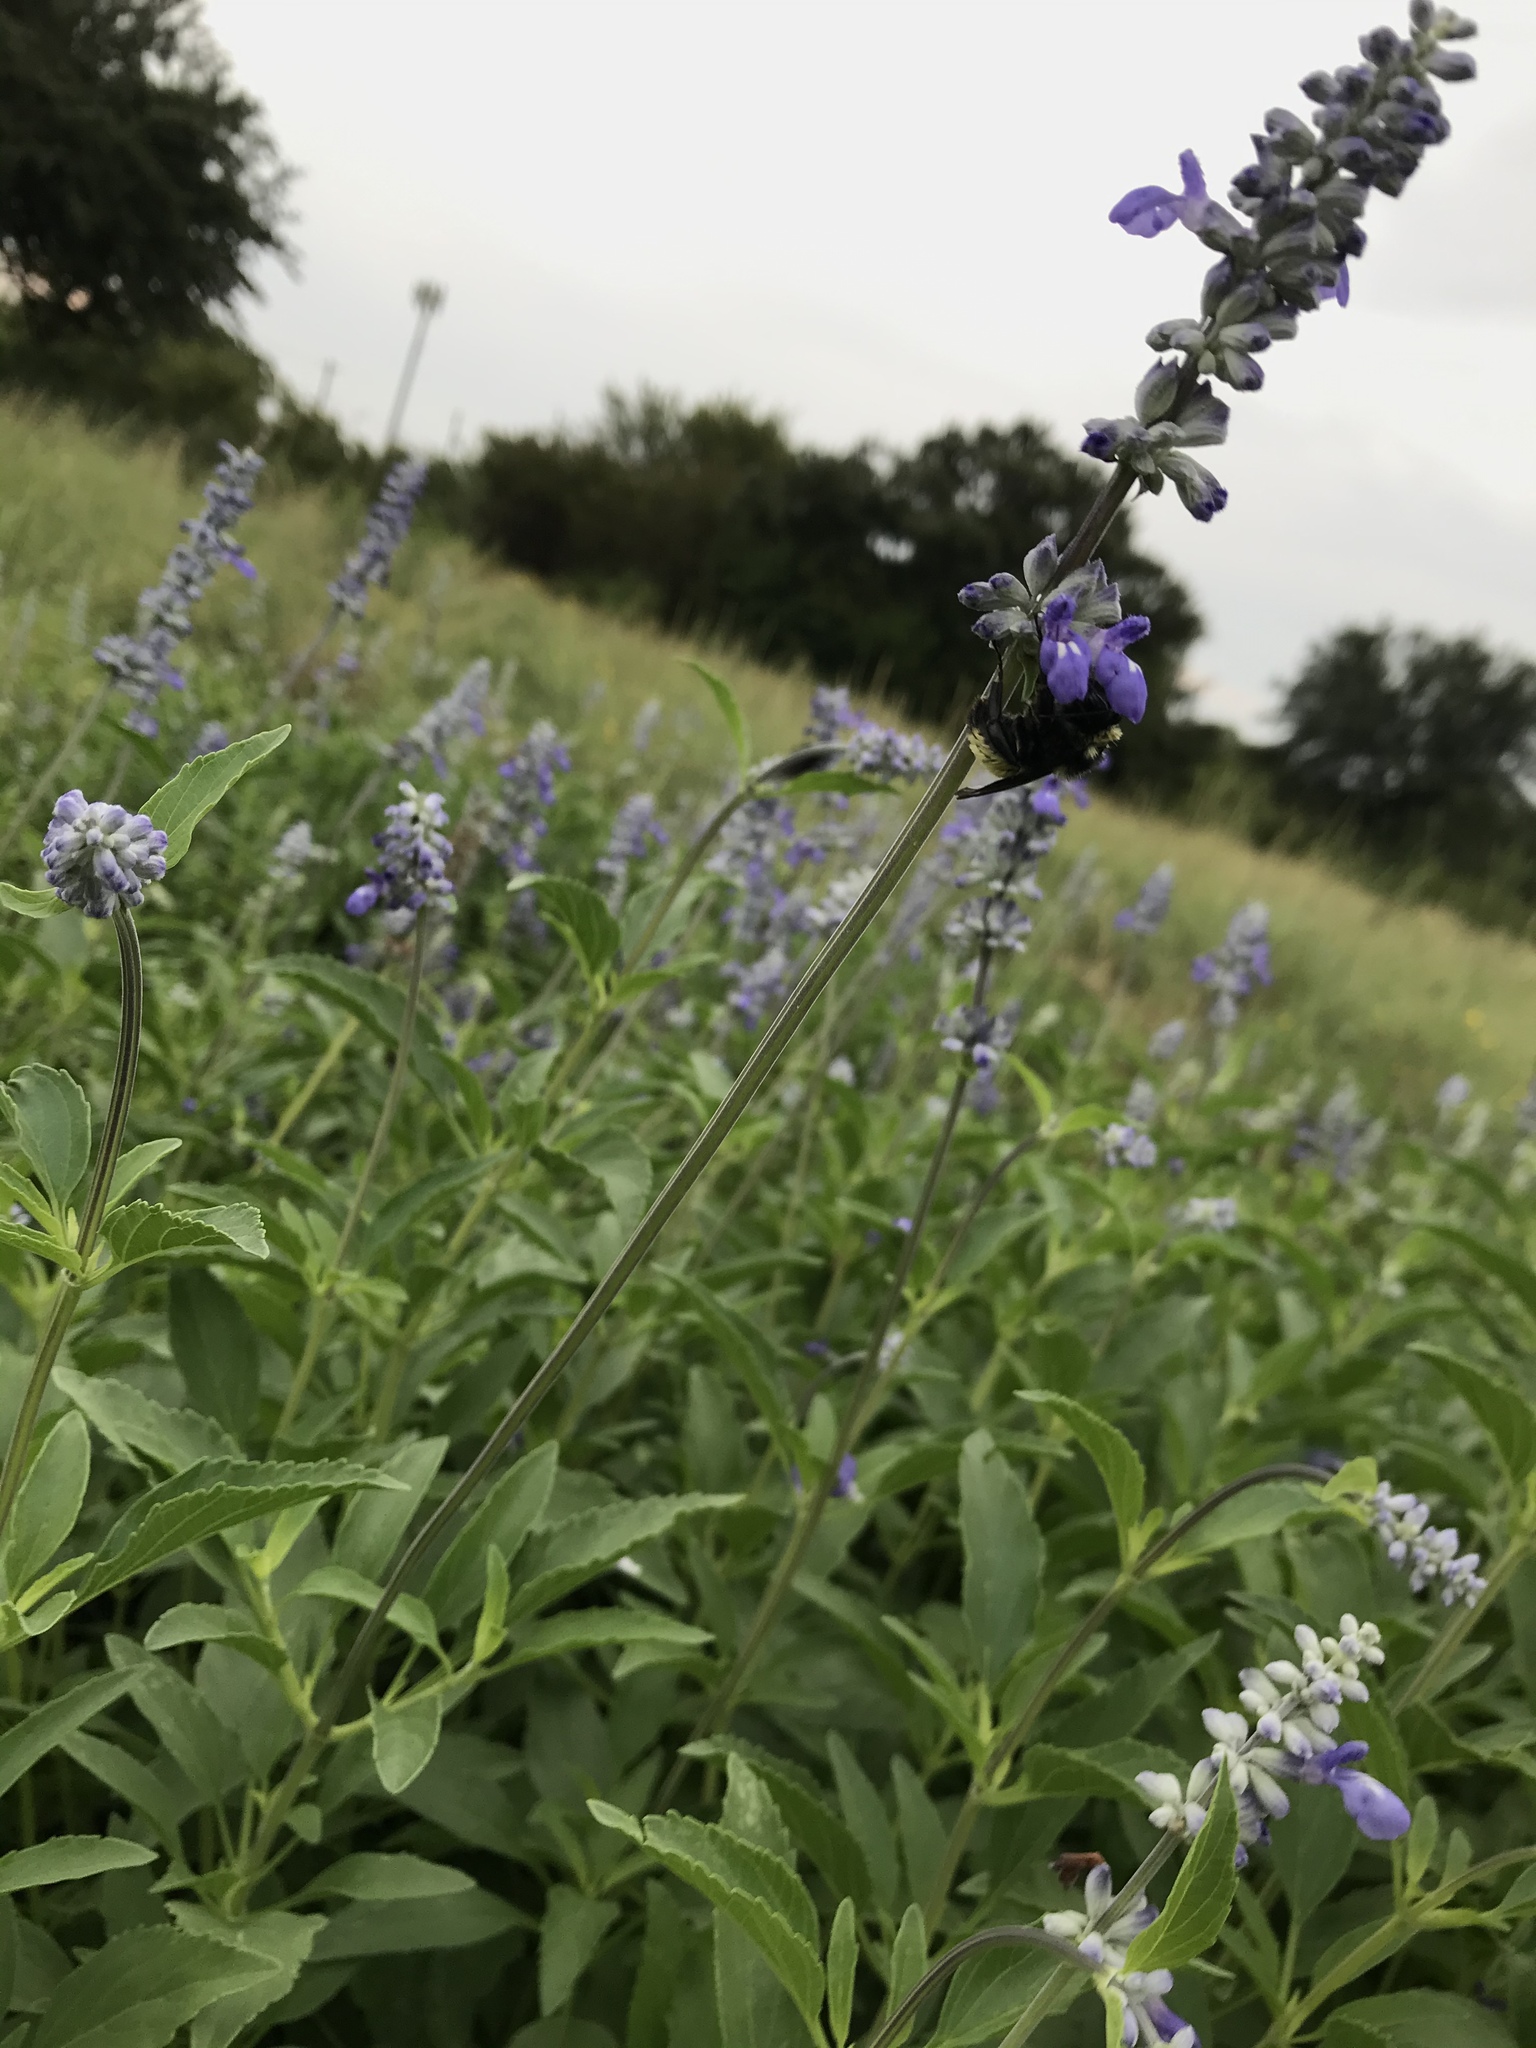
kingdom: Animalia
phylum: Arthropoda
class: Insecta
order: Hymenoptera
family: Apidae
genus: Bombus
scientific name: Bombus pensylvanicus
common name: Bumble bee
